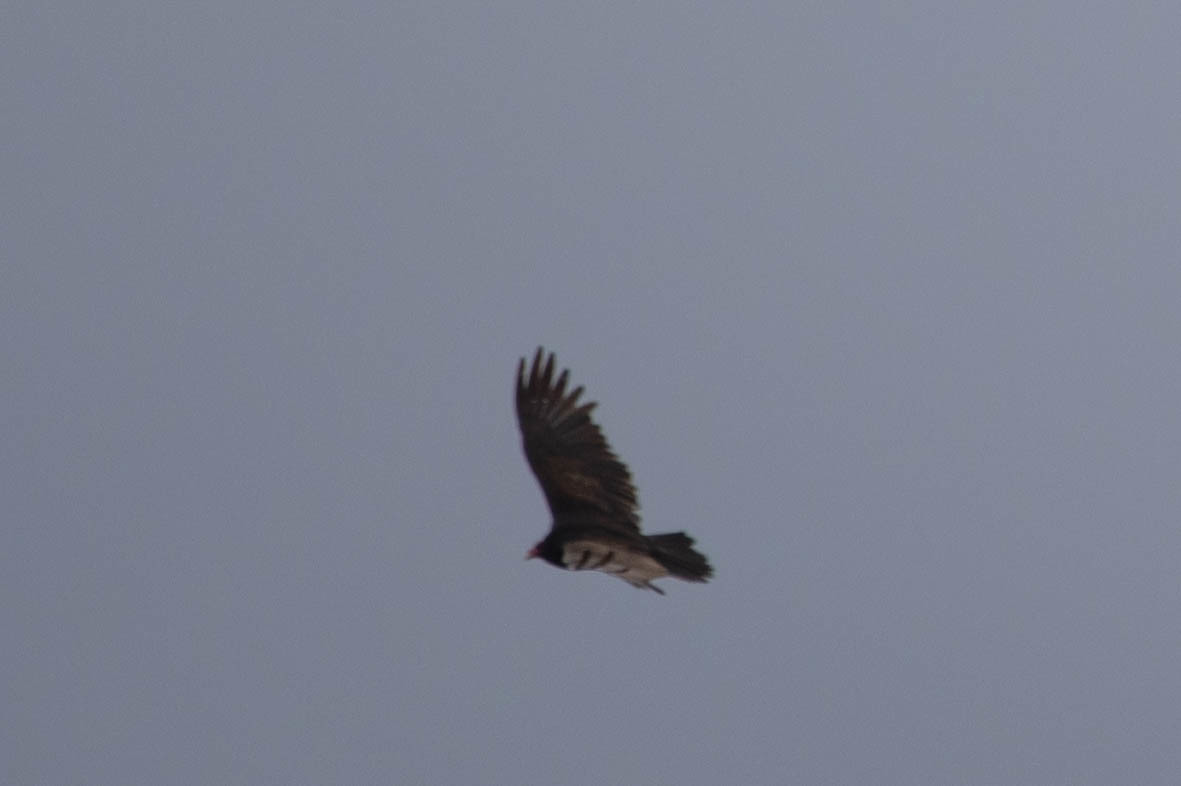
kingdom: Animalia
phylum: Chordata
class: Aves
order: Accipitriformes
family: Cathartidae
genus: Cathartes
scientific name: Cathartes aura
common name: Turkey vulture
